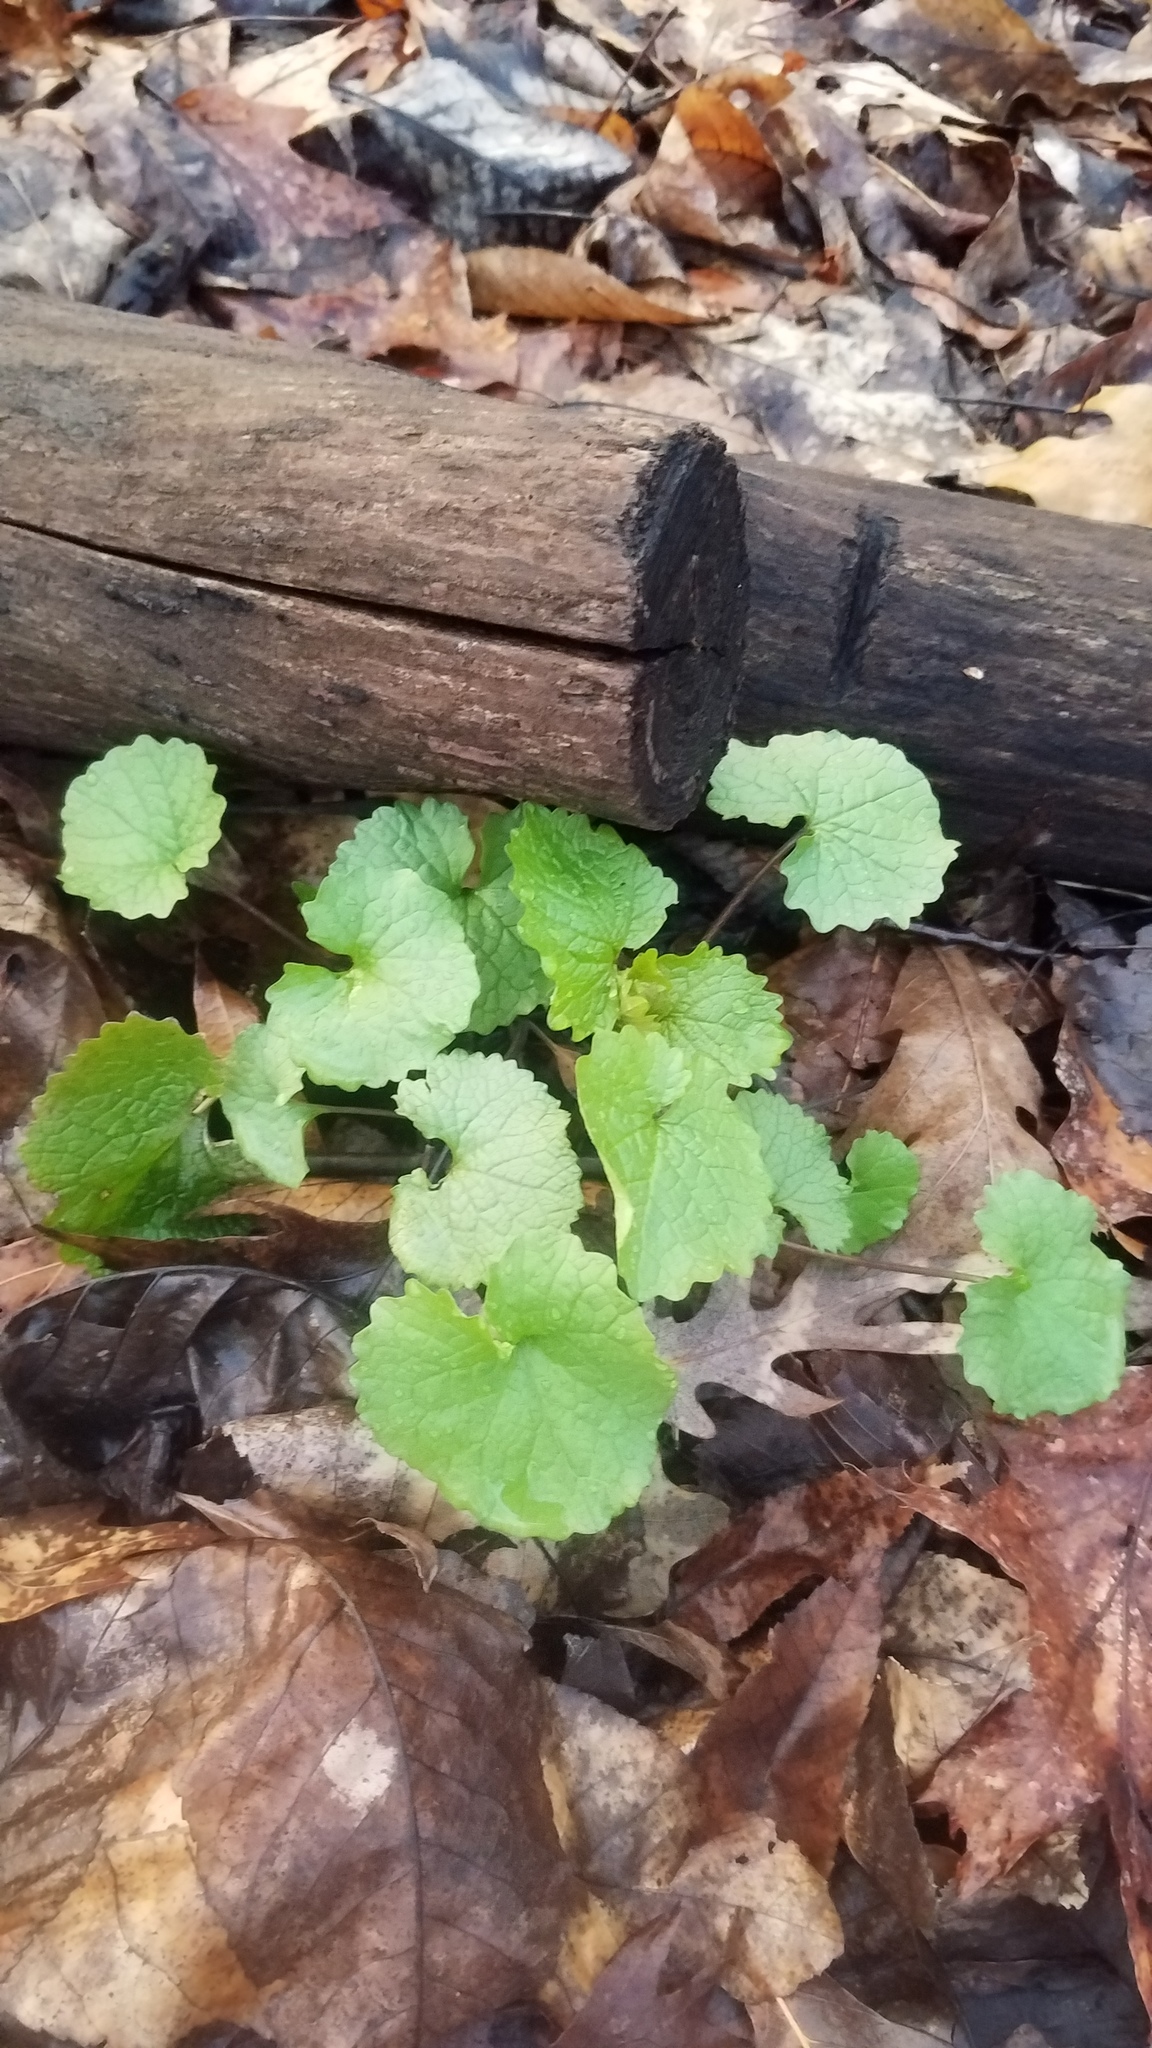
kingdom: Plantae
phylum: Tracheophyta
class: Magnoliopsida
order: Brassicales
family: Brassicaceae
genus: Alliaria
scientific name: Alliaria petiolata
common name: Garlic mustard
